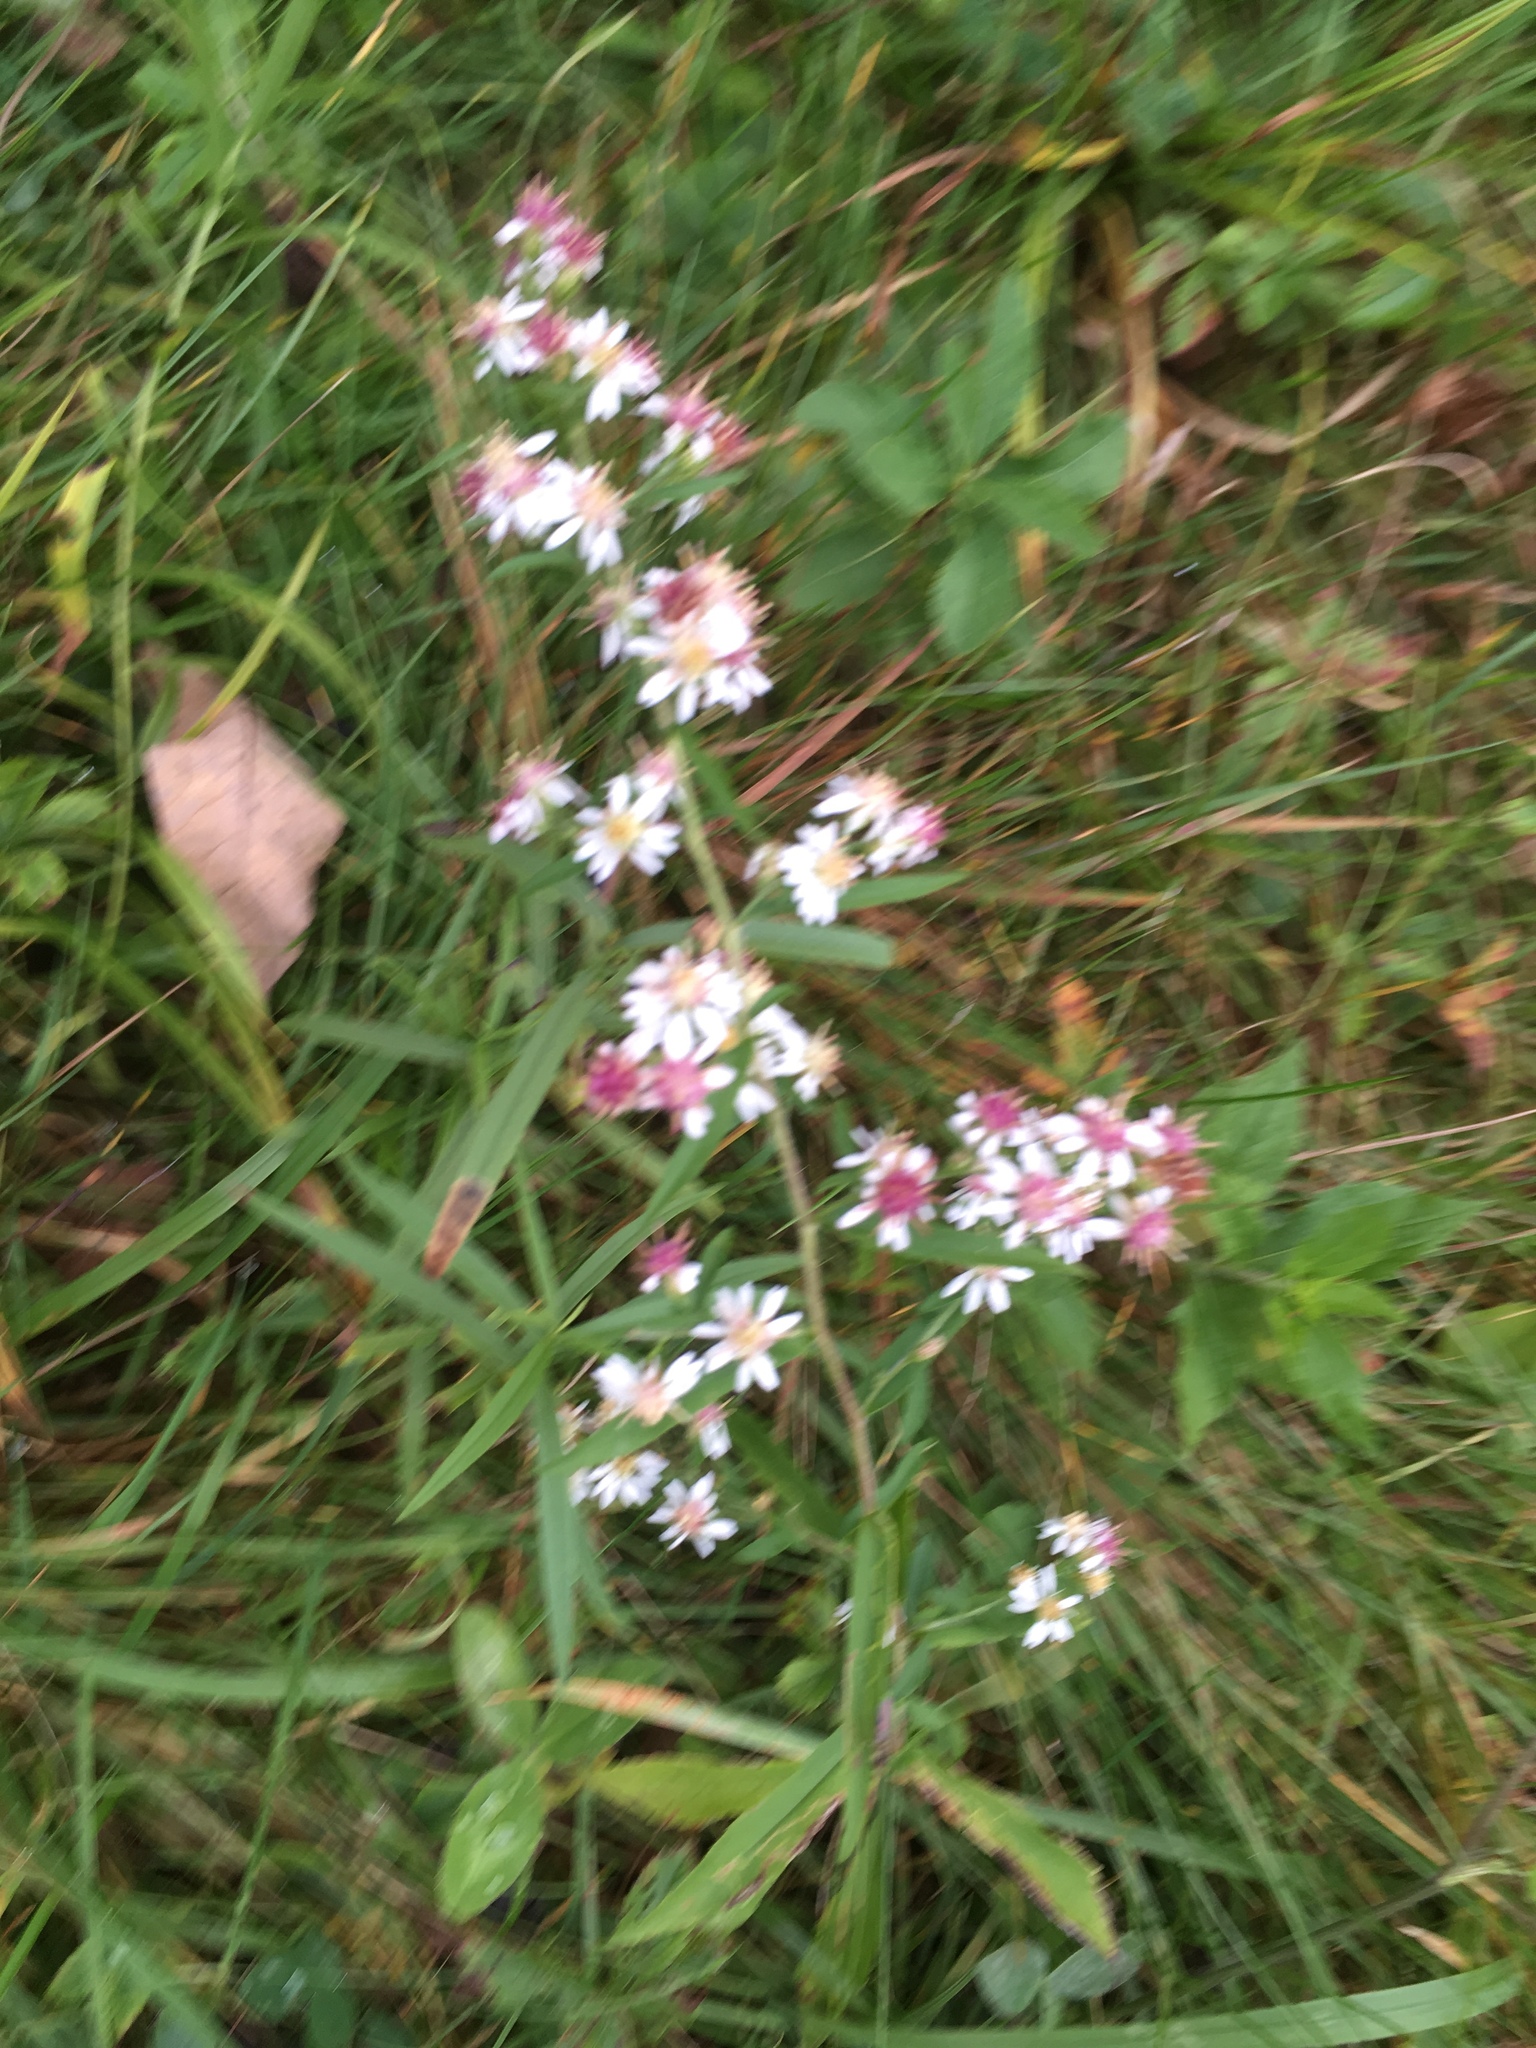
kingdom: Plantae
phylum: Tracheophyta
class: Magnoliopsida
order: Asterales
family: Asteraceae
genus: Symphyotrichum
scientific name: Symphyotrichum lateriflorum
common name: Calico aster
